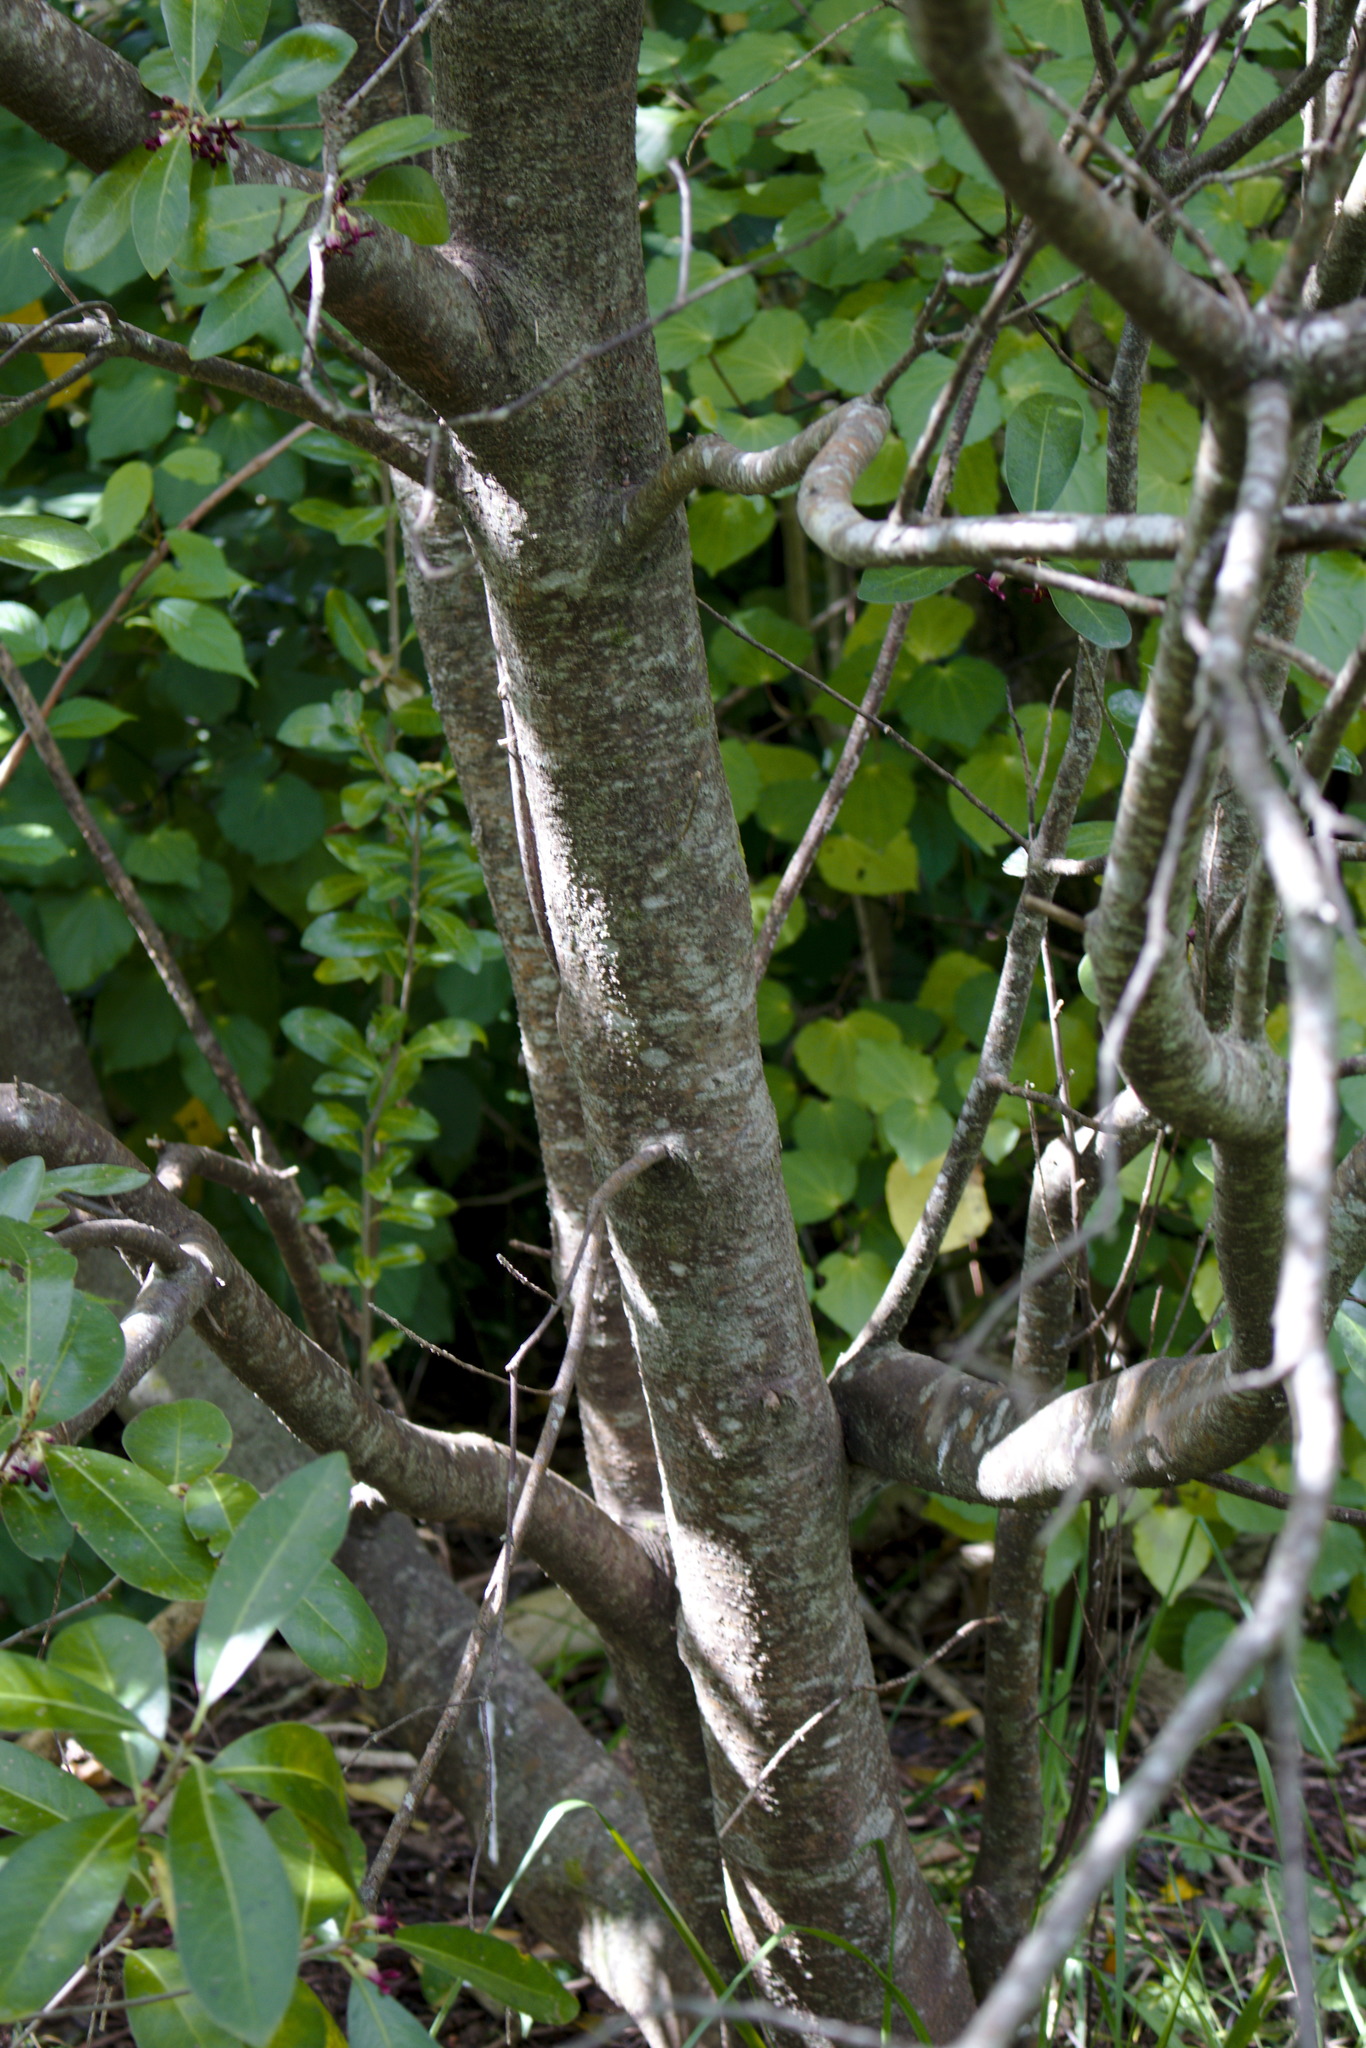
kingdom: Plantae
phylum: Tracheophyta
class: Magnoliopsida
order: Apiales
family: Pittosporaceae
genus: Pittosporum
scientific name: Pittosporum colensoi
